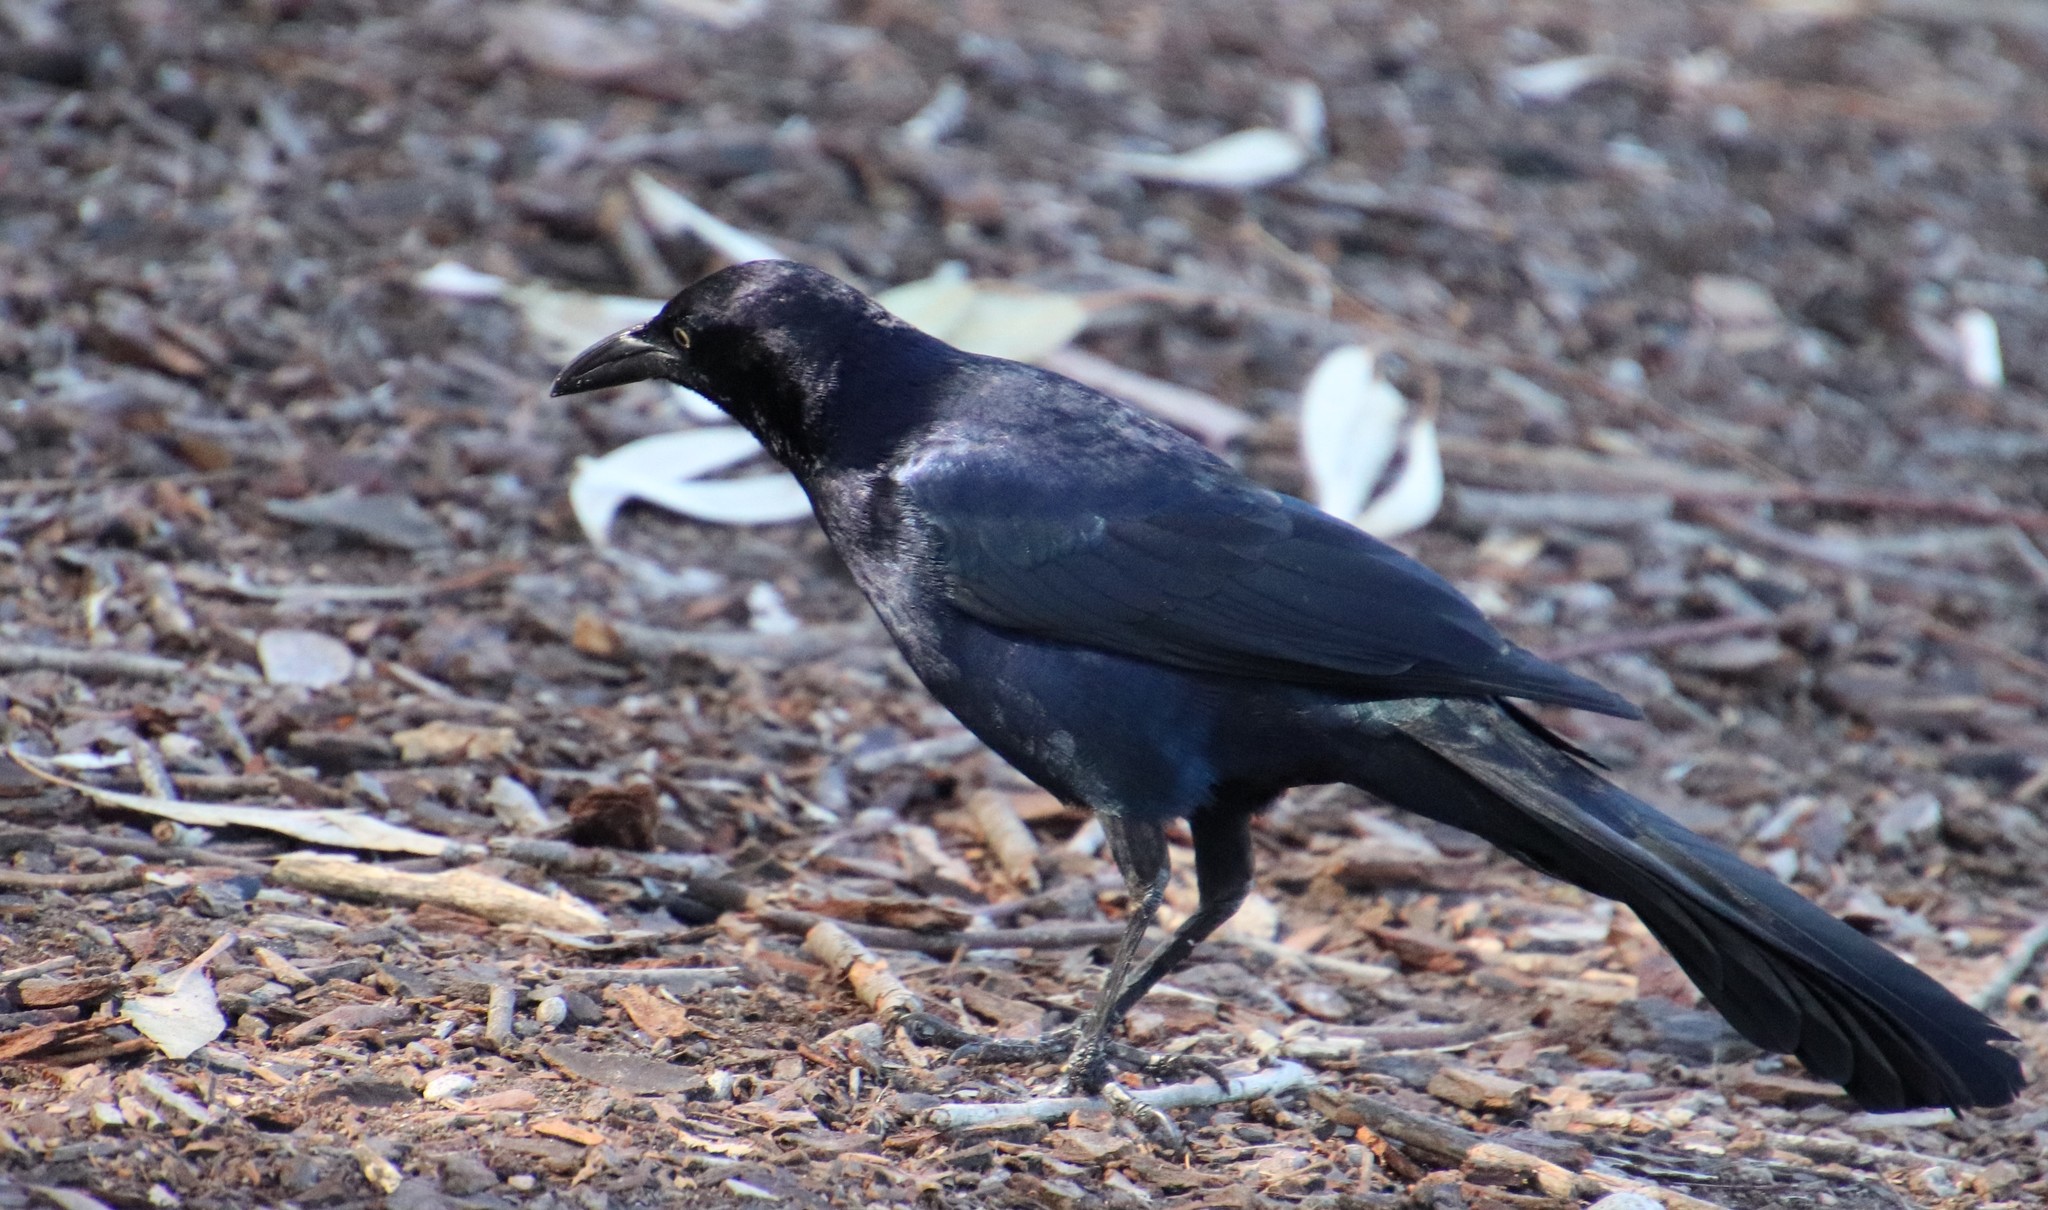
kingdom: Animalia
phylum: Chordata
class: Aves
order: Passeriformes
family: Icteridae
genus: Quiscalus
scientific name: Quiscalus mexicanus
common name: Great-tailed grackle
